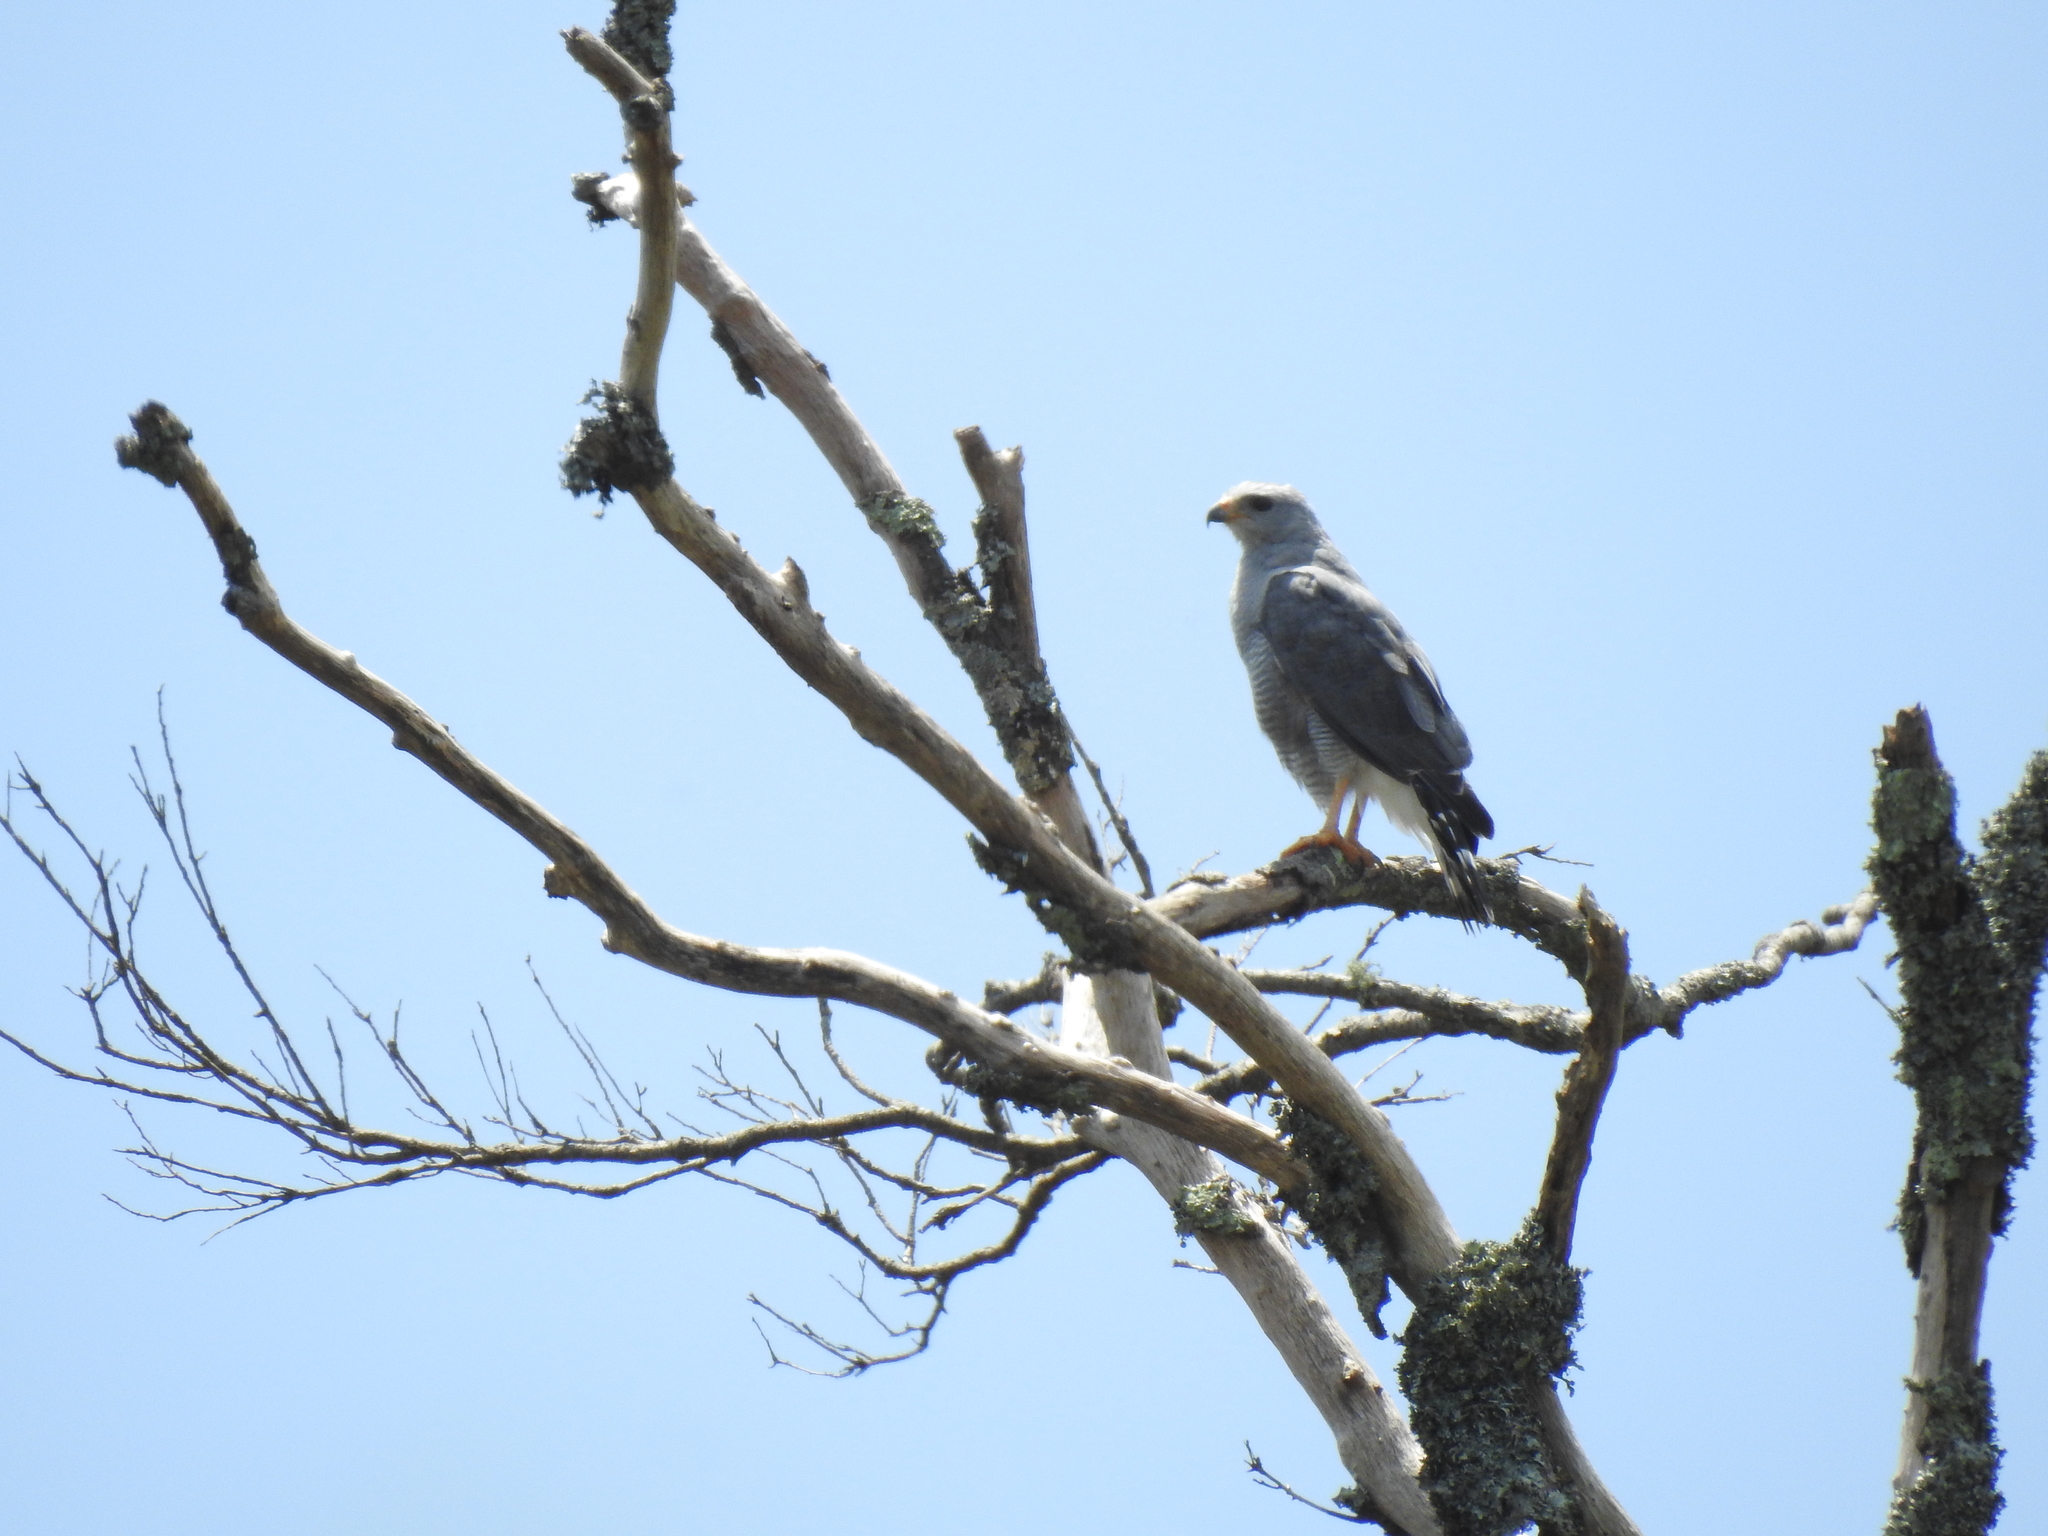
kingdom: Animalia
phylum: Chordata
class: Aves
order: Accipitriformes
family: Accipitridae
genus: Buteo
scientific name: Buteo nitidus
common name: Grey-lined hawk
